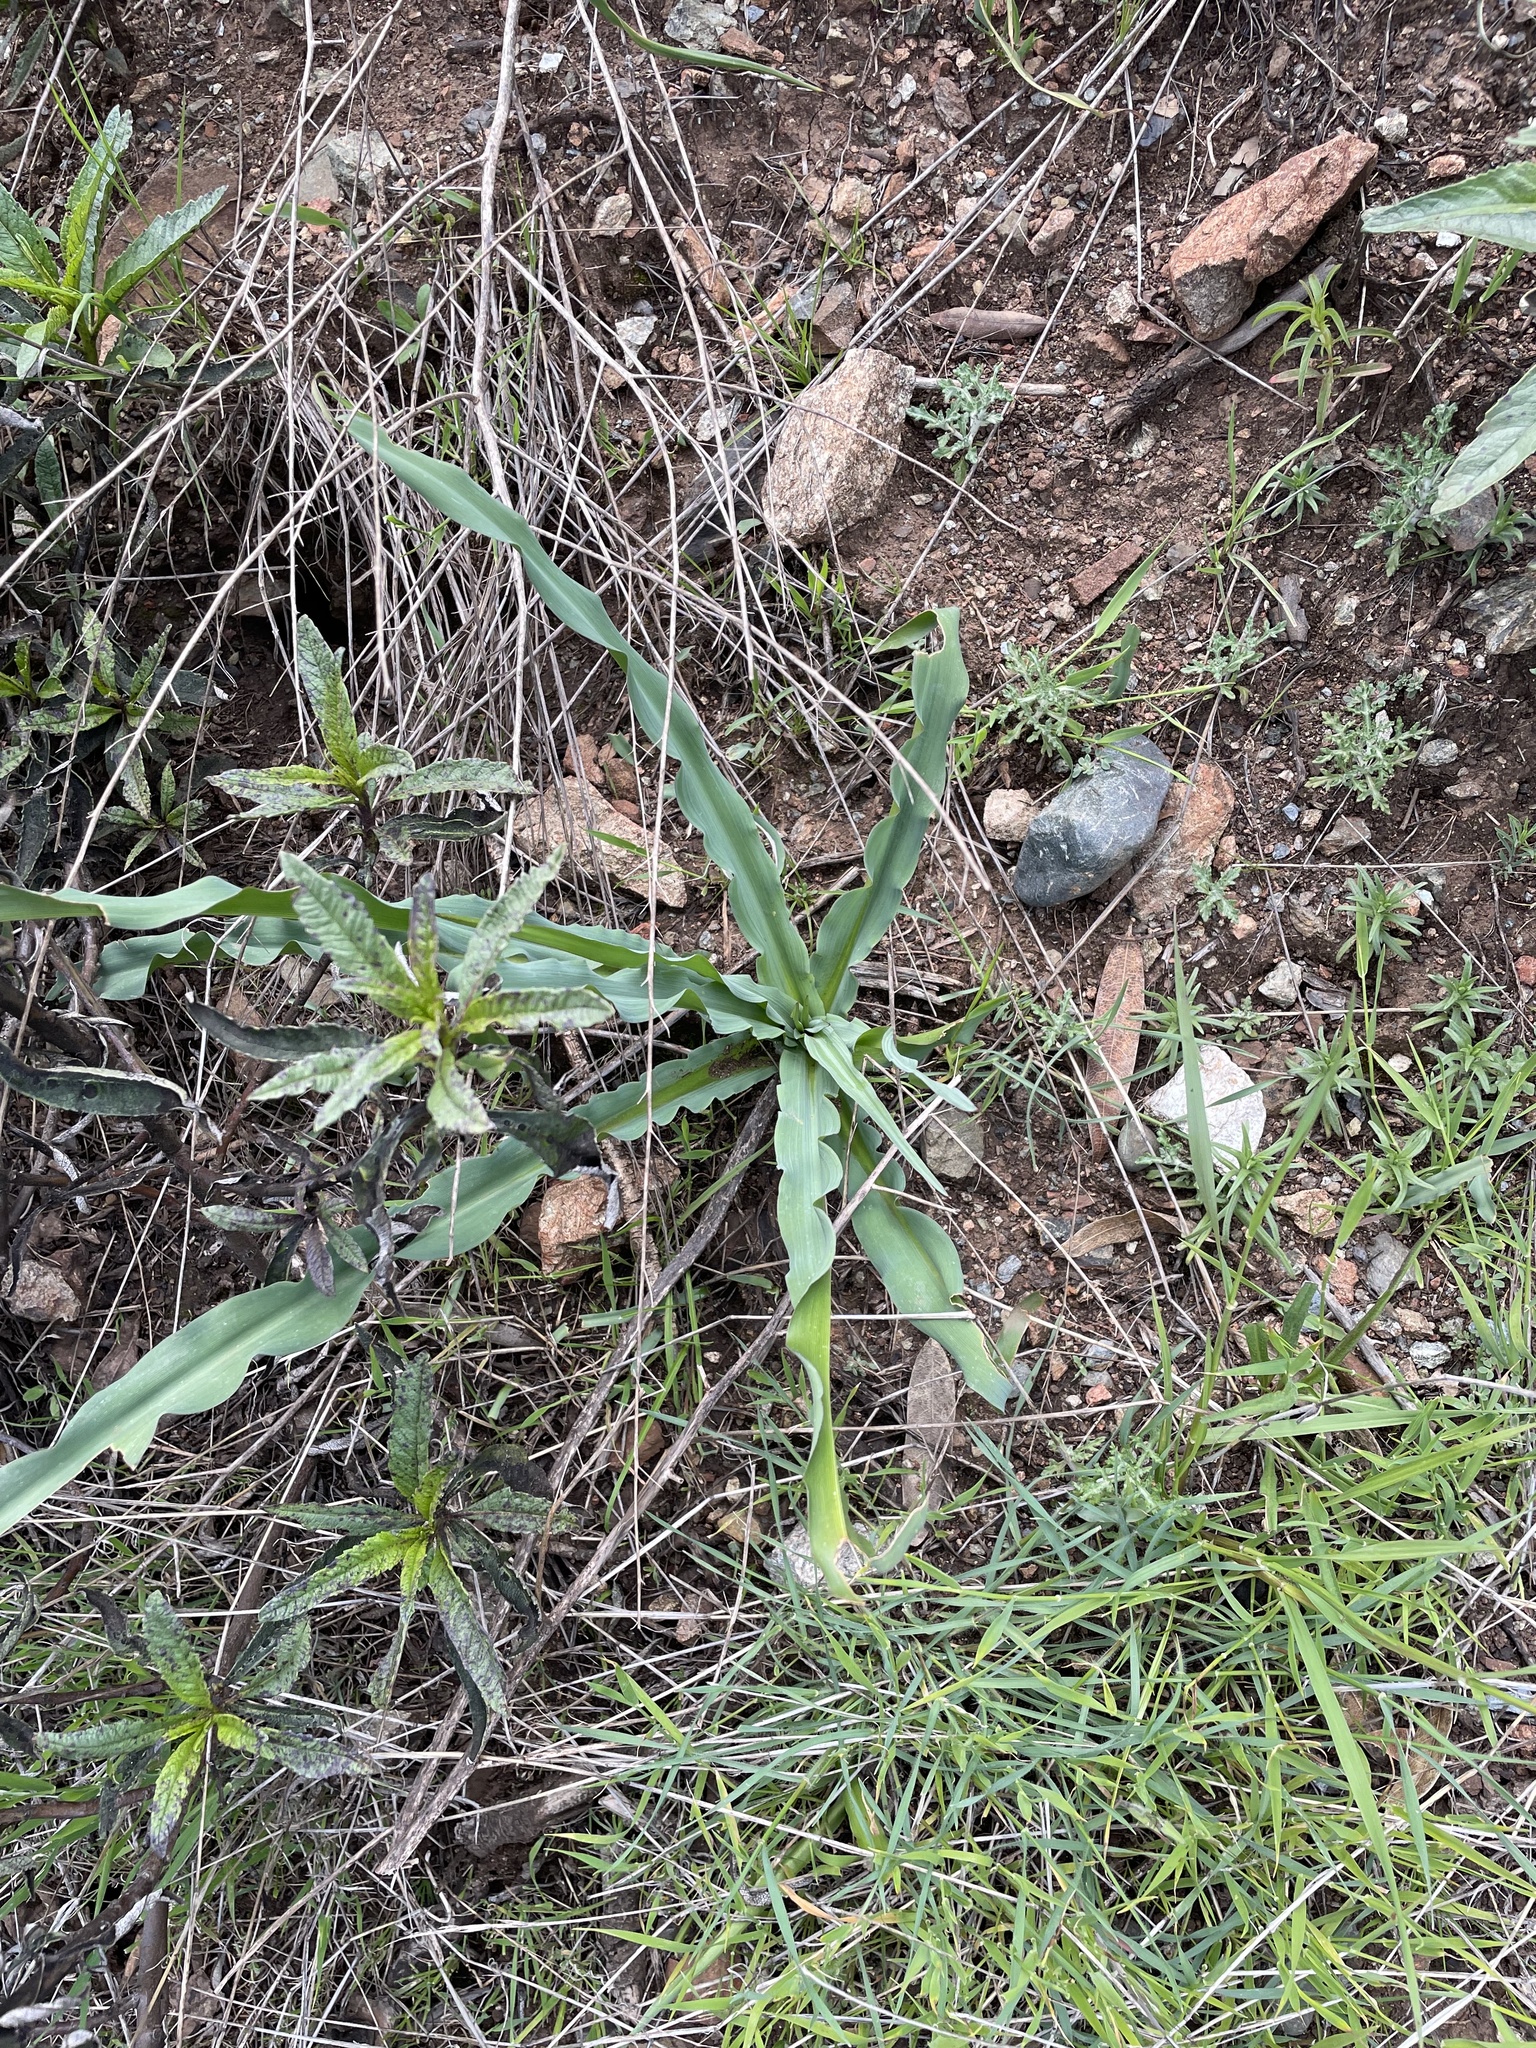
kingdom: Plantae
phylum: Tracheophyta
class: Liliopsida
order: Asparagales
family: Asparagaceae
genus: Chlorogalum
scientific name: Chlorogalum pomeridianum
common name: Amole
